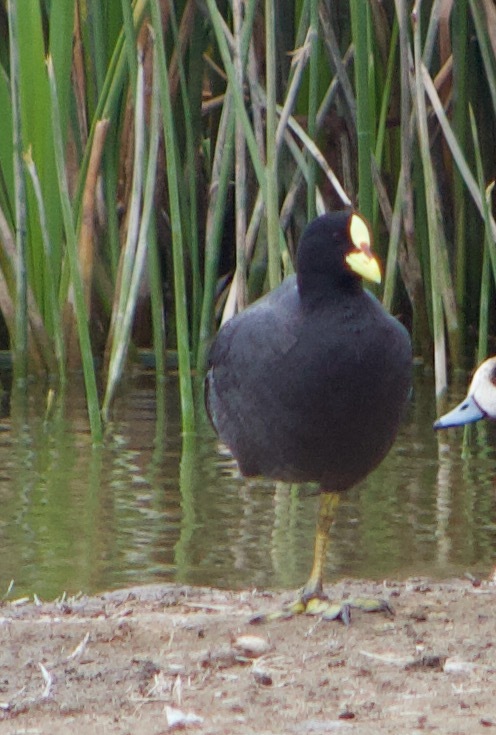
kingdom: Animalia
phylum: Chordata
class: Aves
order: Gruiformes
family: Rallidae
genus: Fulica
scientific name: Fulica armillata
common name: Red-gartered coot
